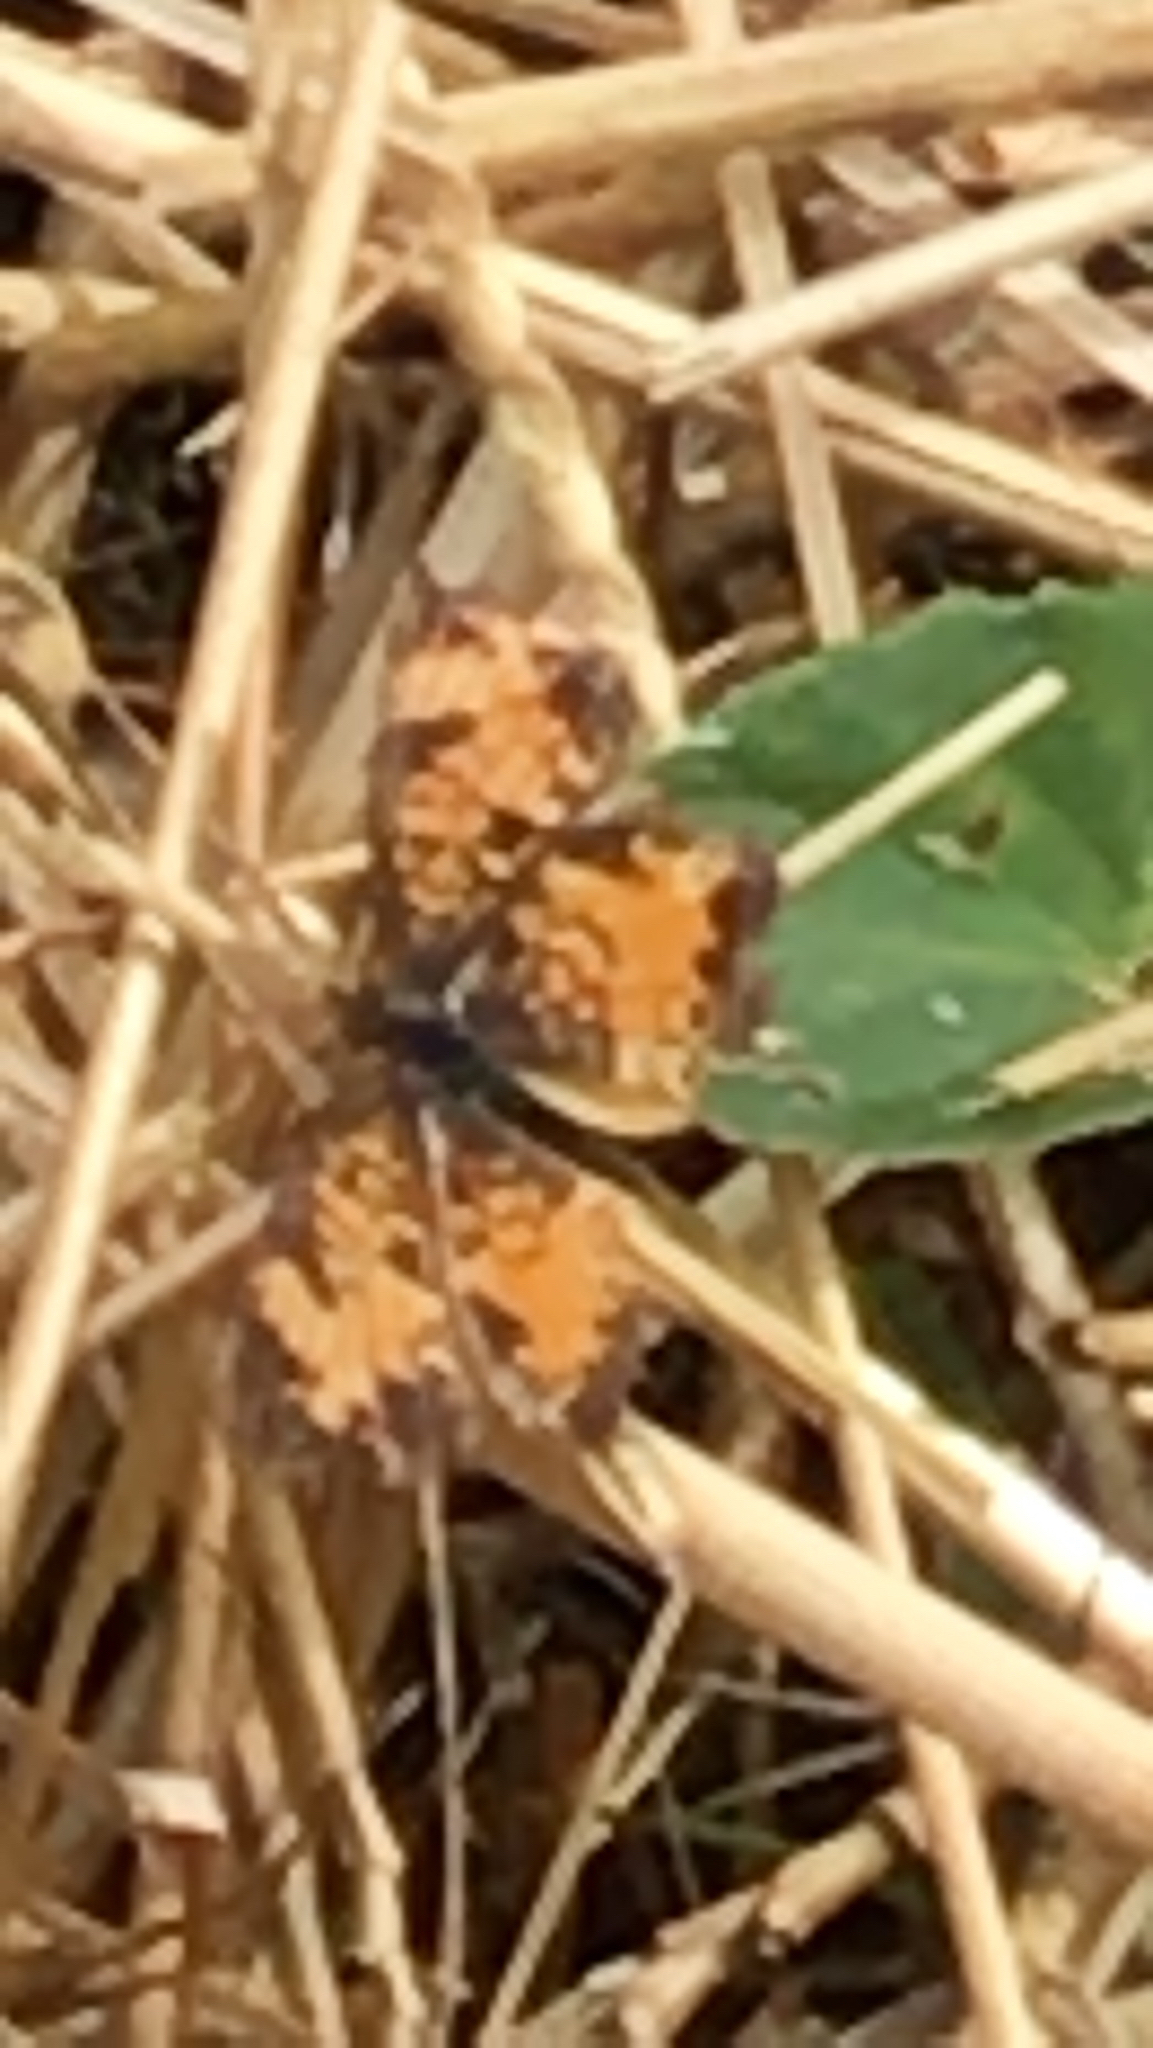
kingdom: Animalia
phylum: Arthropoda
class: Insecta
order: Lepidoptera
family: Nymphalidae
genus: Phyciodes
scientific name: Phyciodes tharos
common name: Pearl crescent
